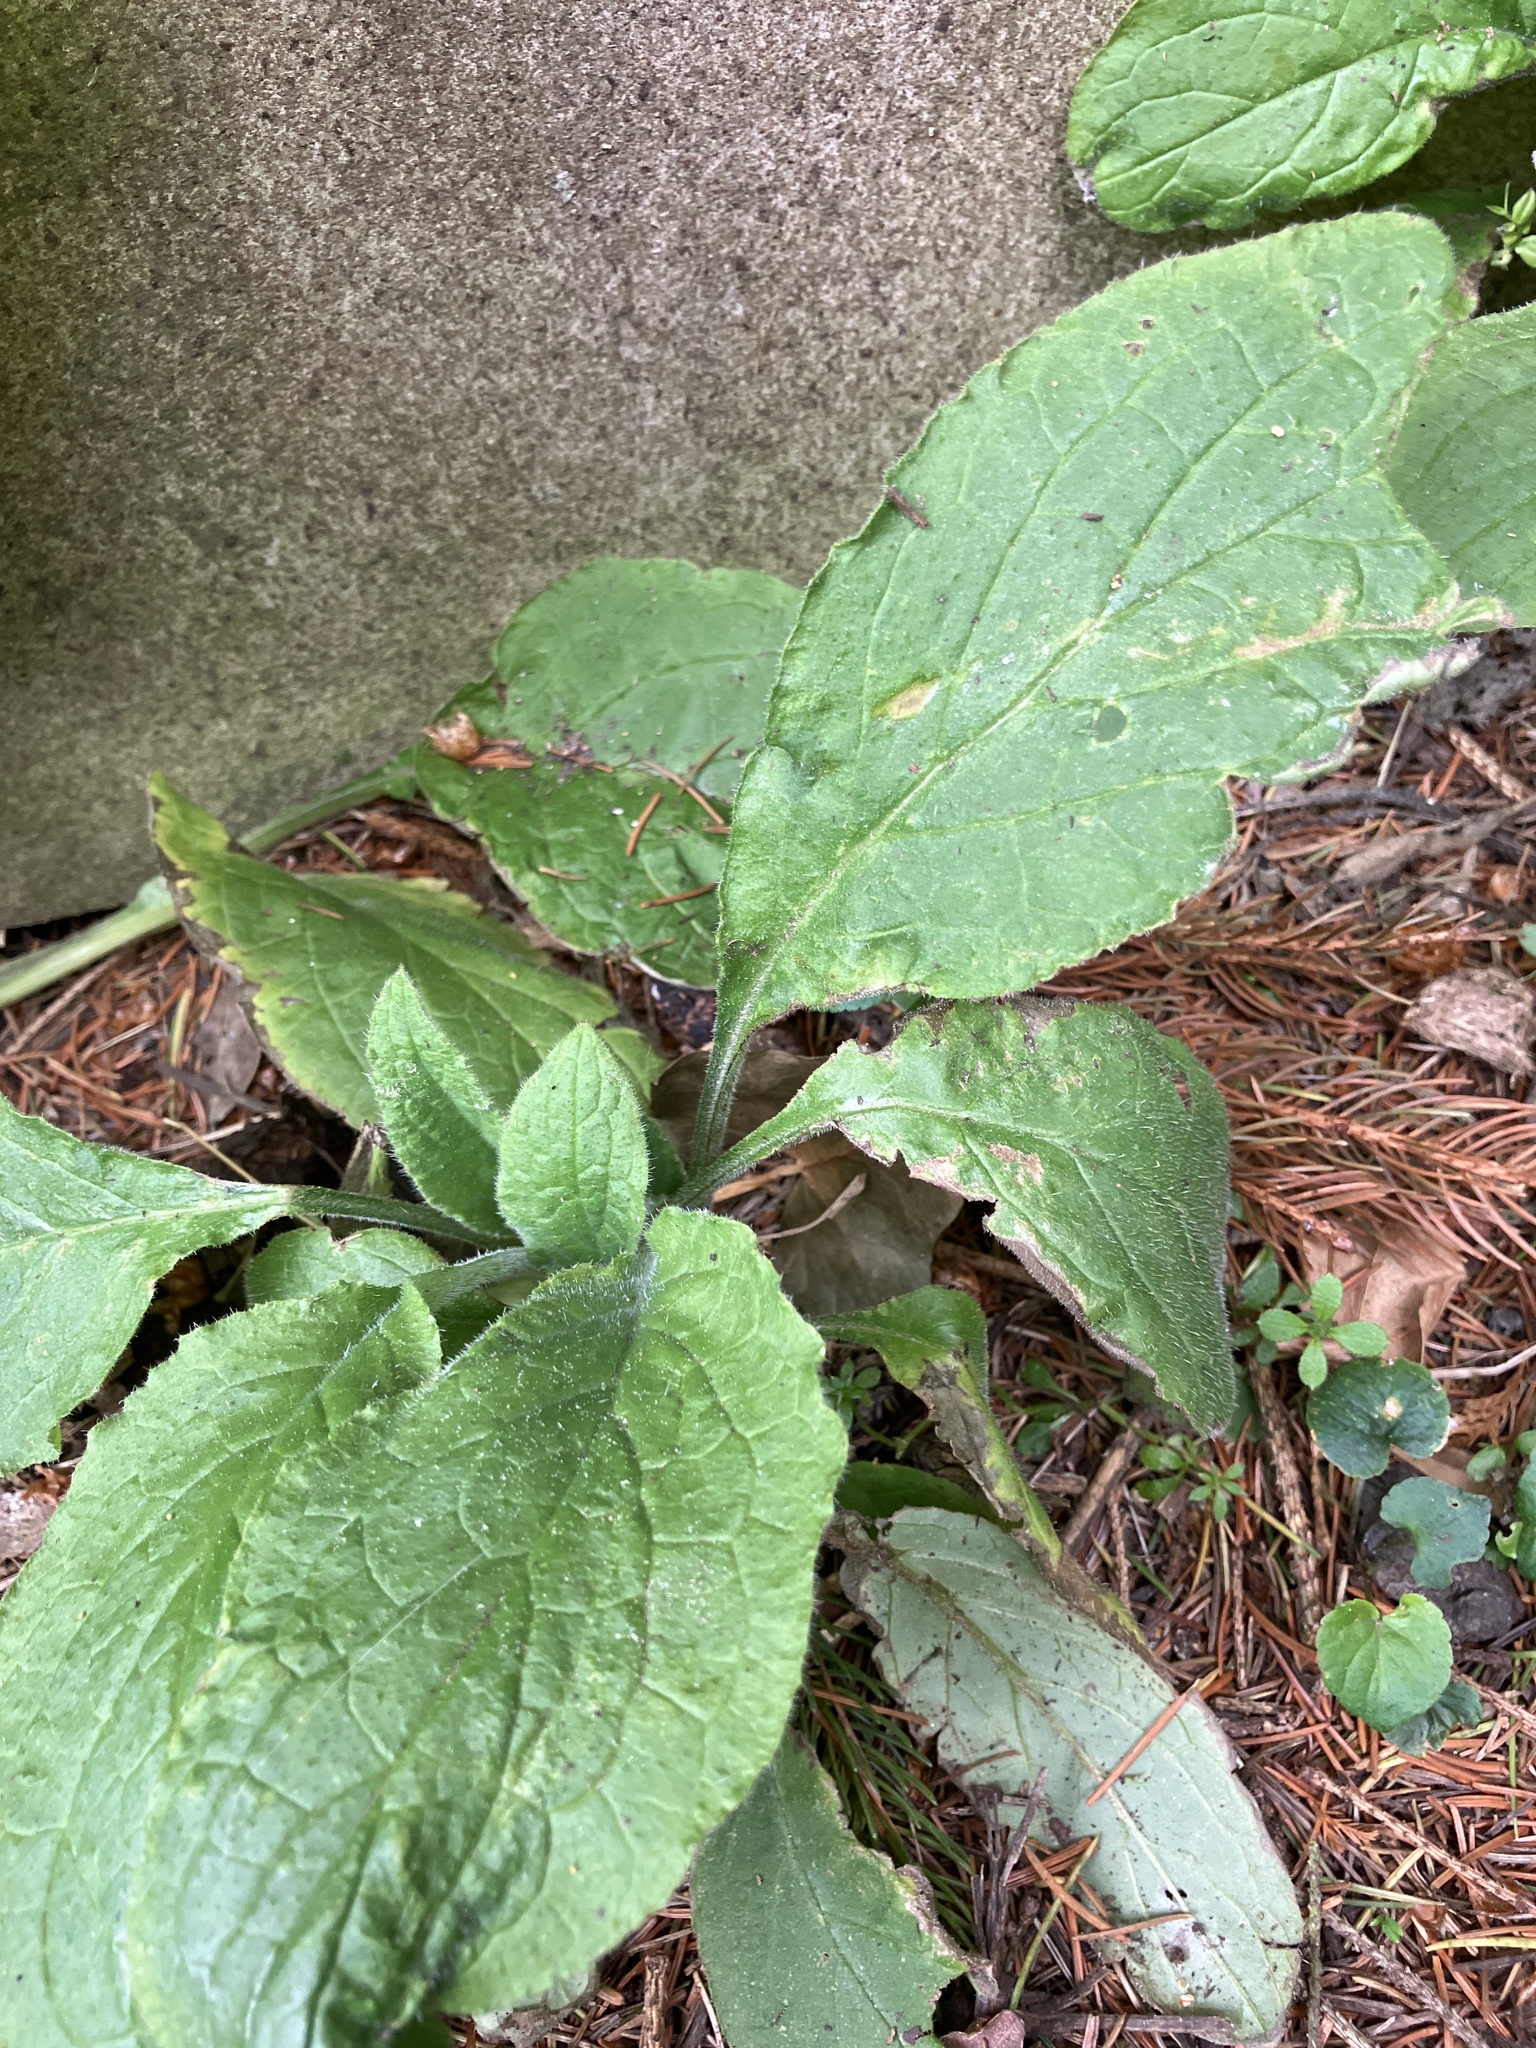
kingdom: Plantae
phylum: Tracheophyta
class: Magnoliopsida
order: Boraginales
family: Boraginaceae
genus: Pentaglottis
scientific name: Pentaglottis sempervirens
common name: Green alkanet
